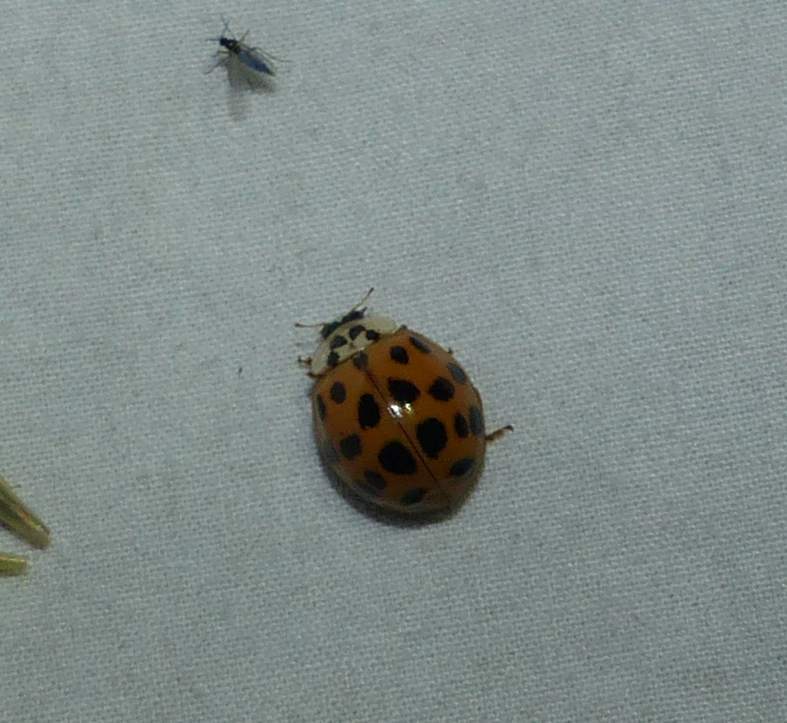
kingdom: Animalia
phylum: Arthropoda
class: Insecta
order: Coleoptera
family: Coccinellidae
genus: Harmonia
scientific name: Harmonia axyridis
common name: Harlequin ladybird
